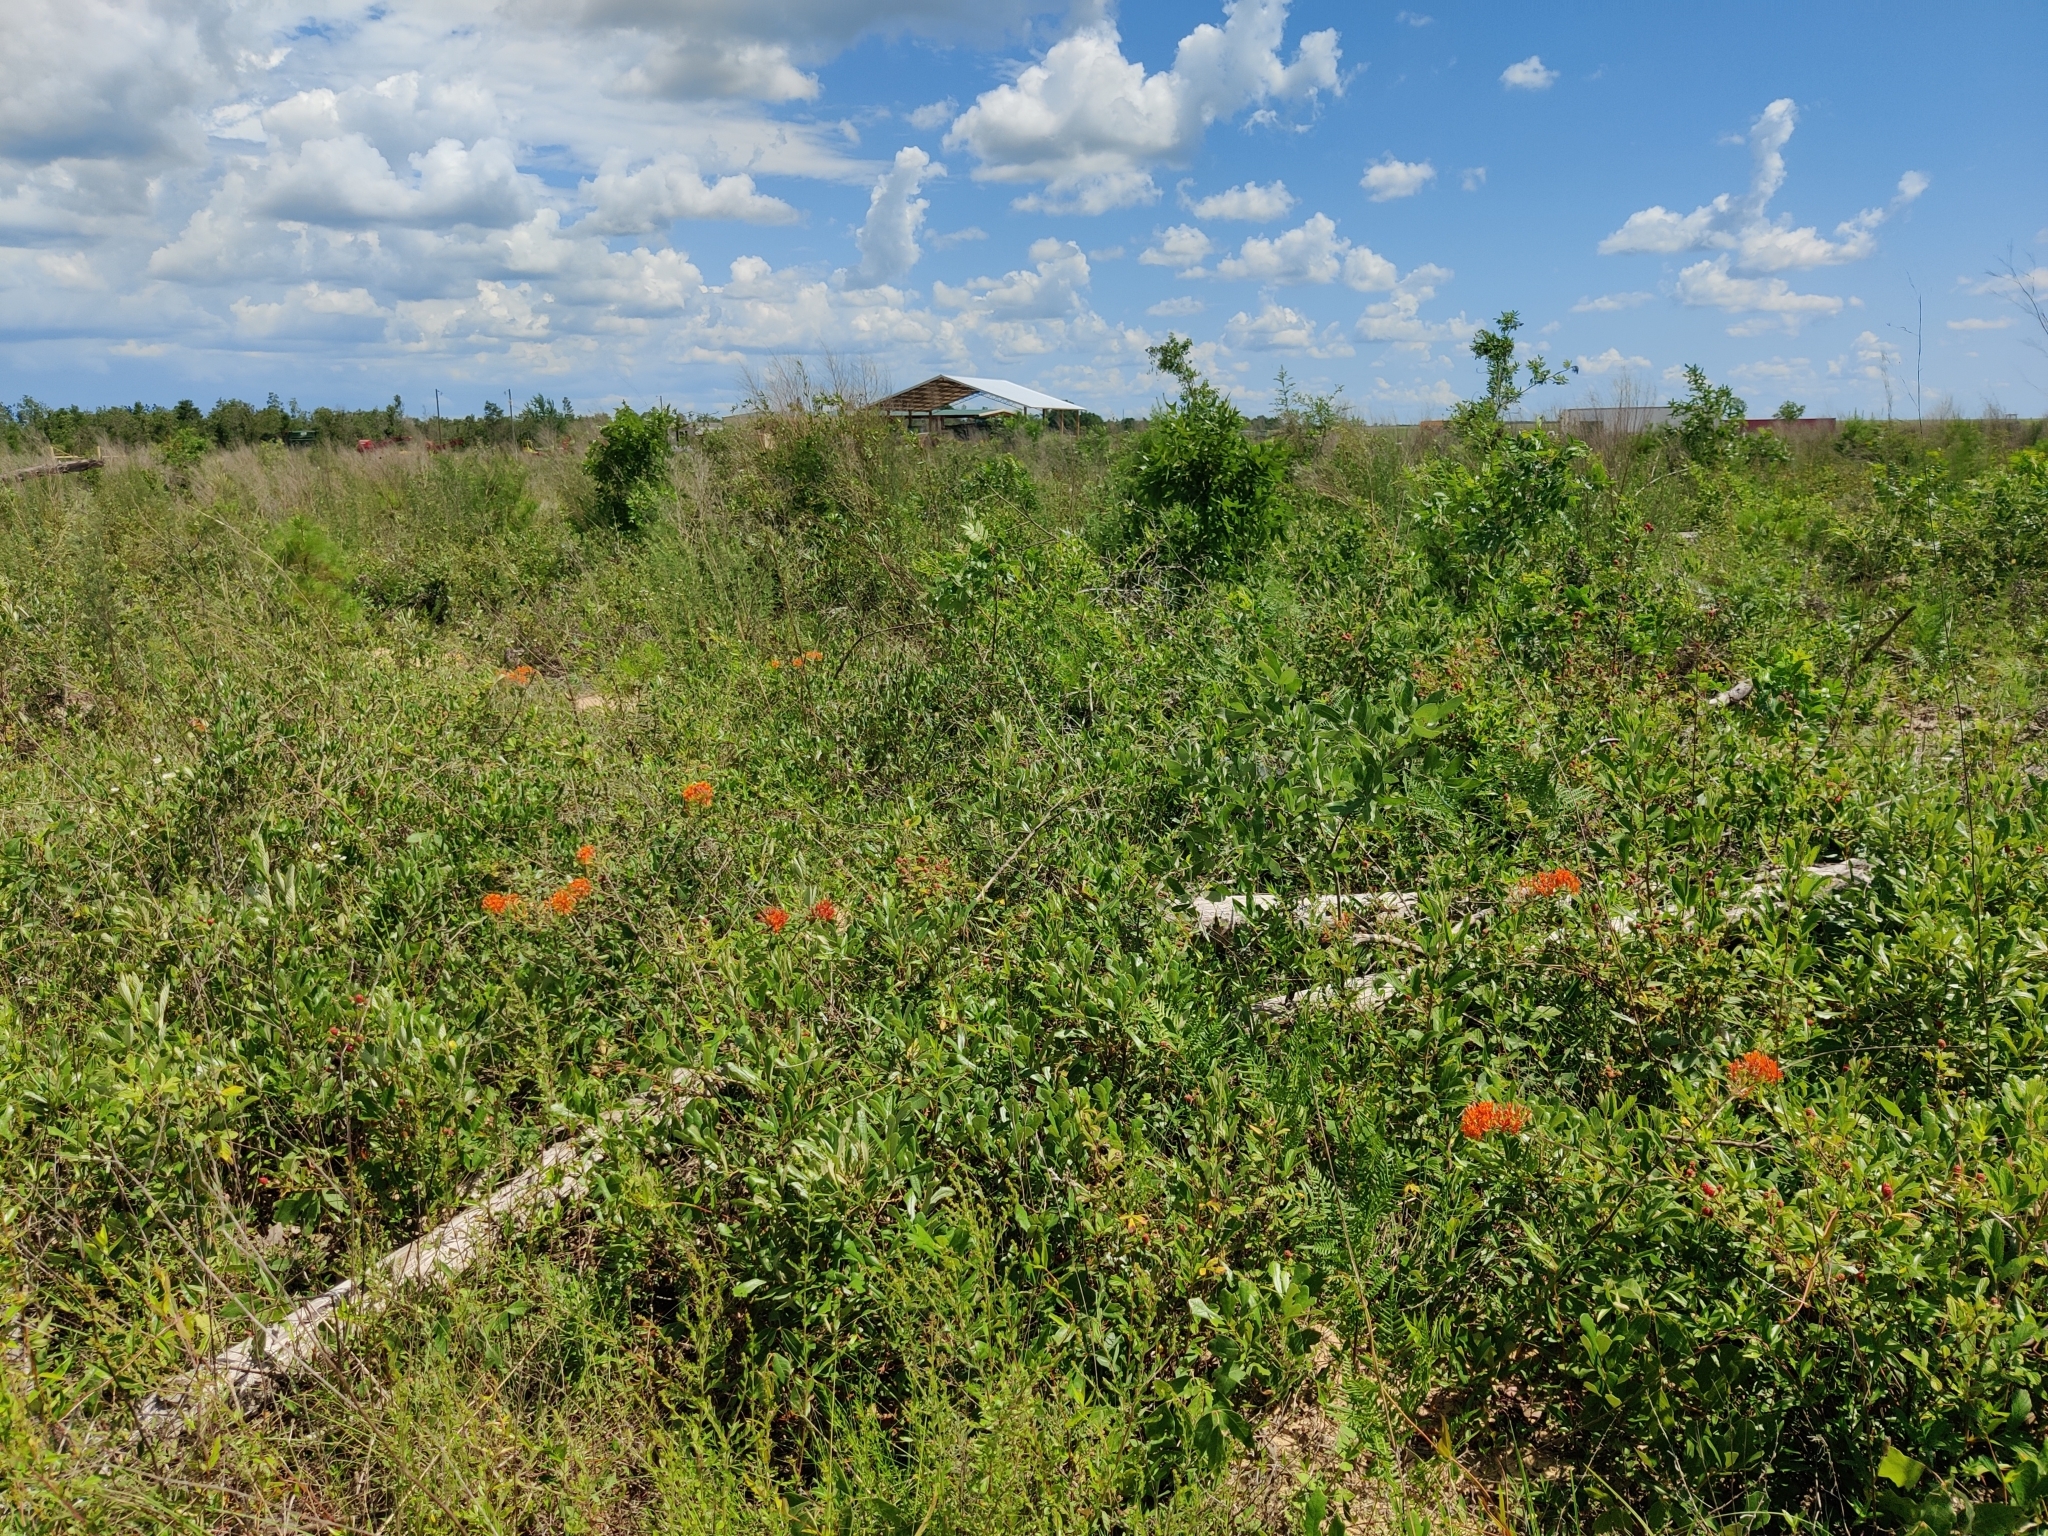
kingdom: Plantae
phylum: Tracheophyta
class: Magnoliopsida
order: Gentianales
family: Apocynaceae
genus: Asclepias
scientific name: Asclepias tuberosa
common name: Butterfly milkweed
